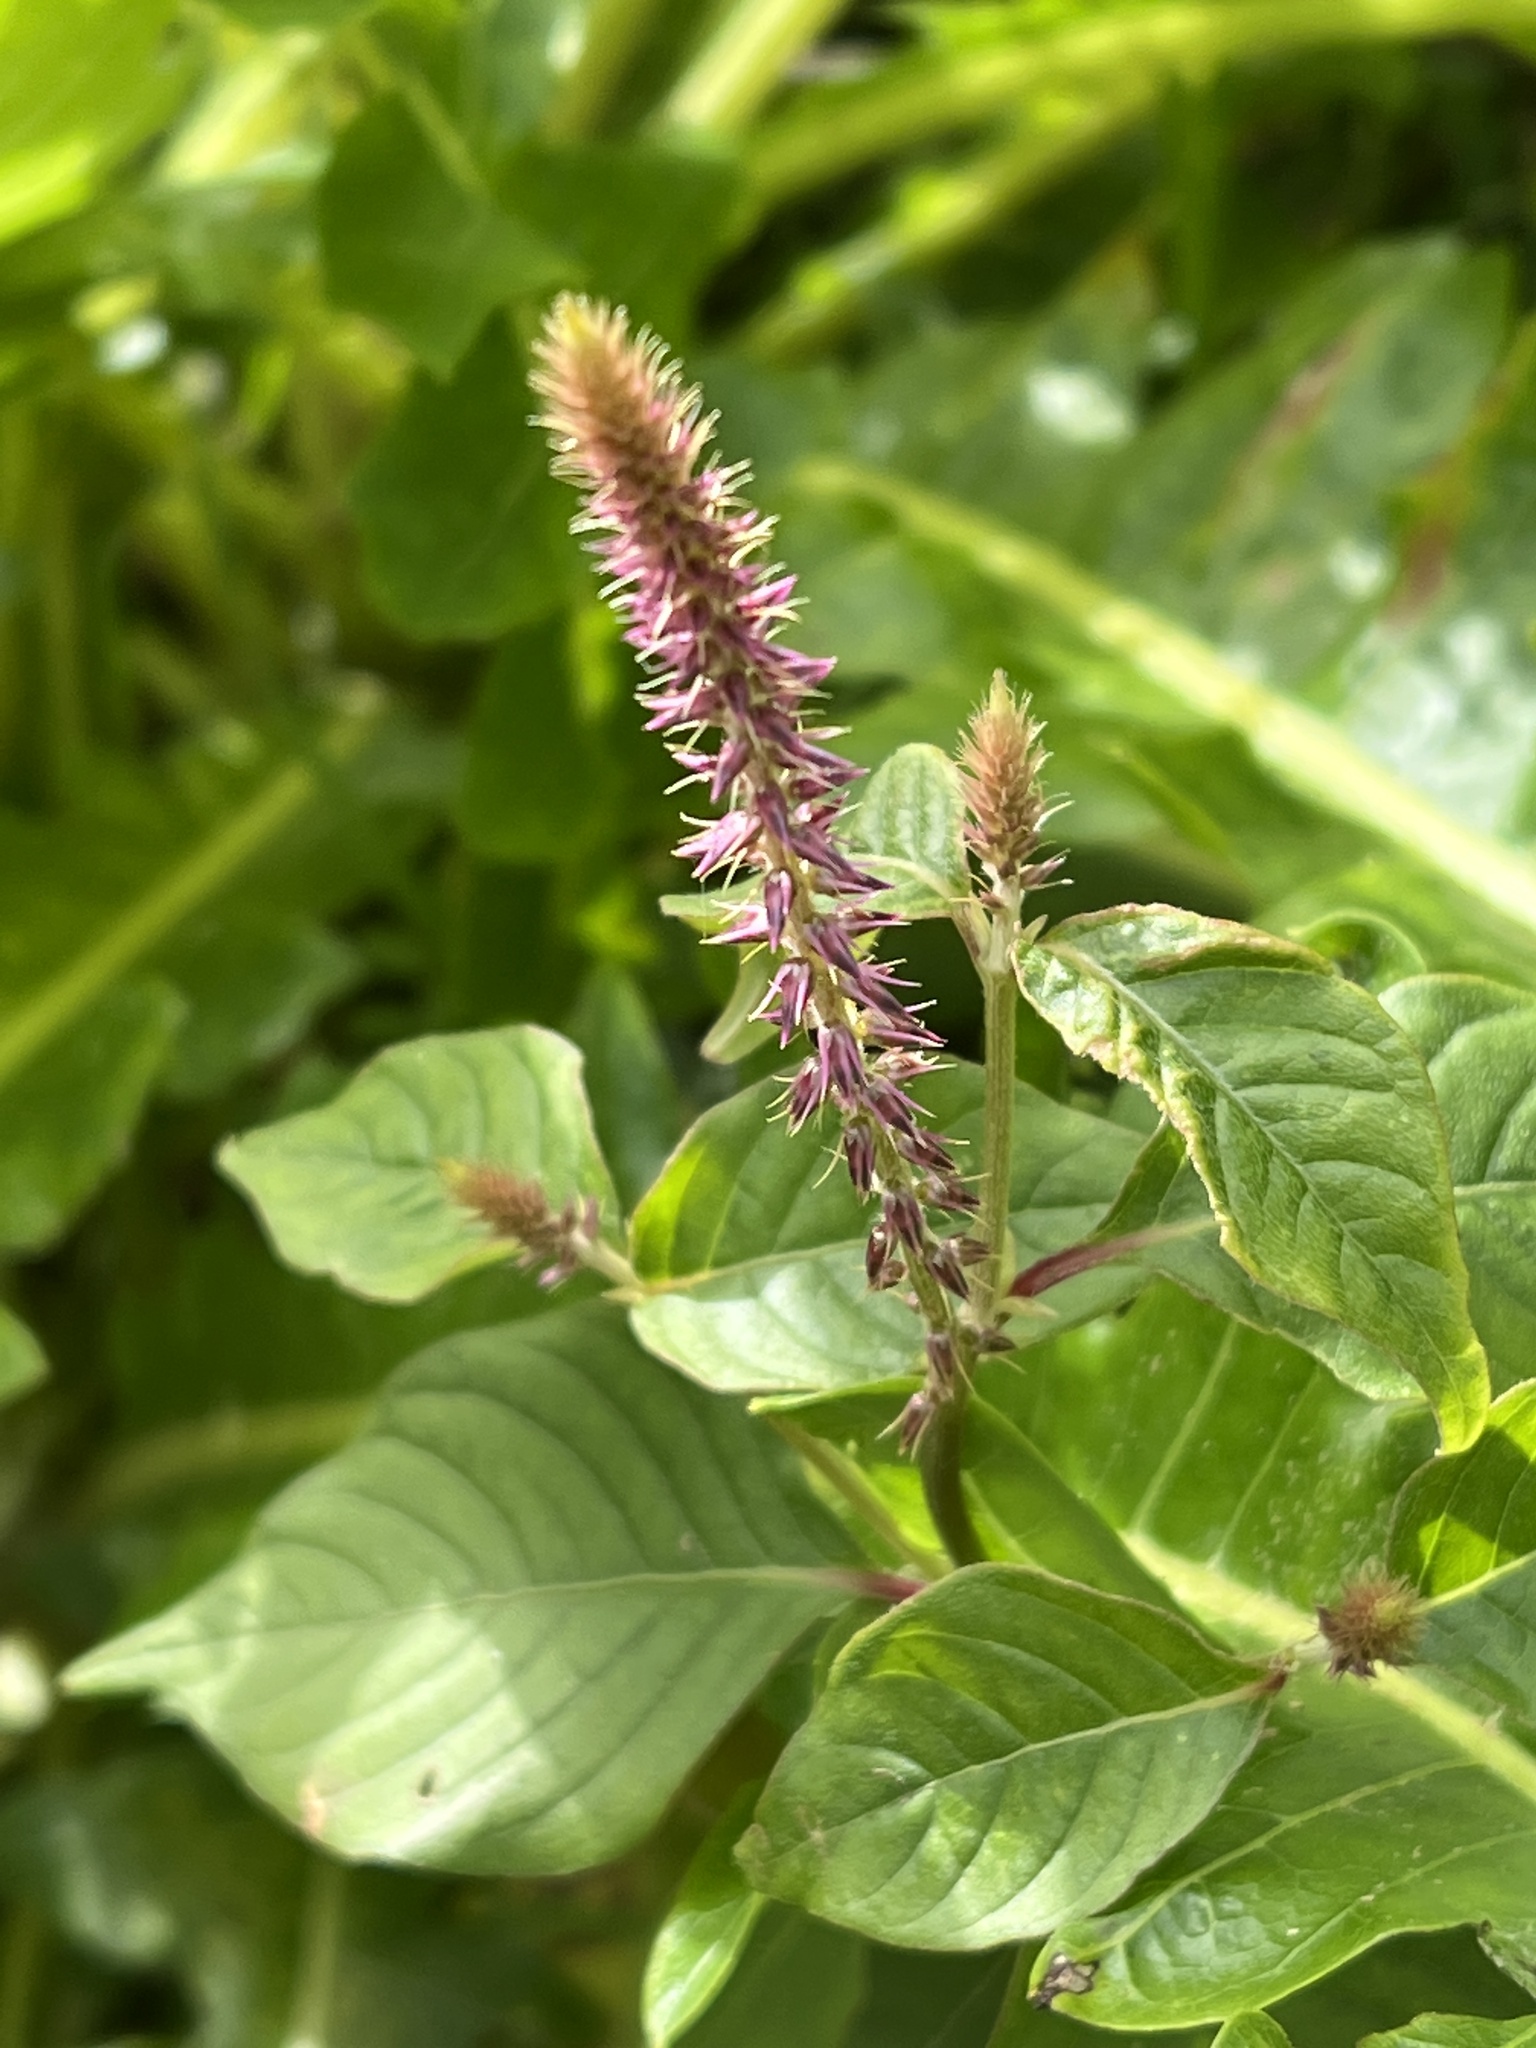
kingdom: Plantae
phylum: Tracheophyta
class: Magnoliopsida
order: Caryophyllales
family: Amaranthaceae
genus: Achyranthes
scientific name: Achyranthes aspera
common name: Devil's horsewhip
